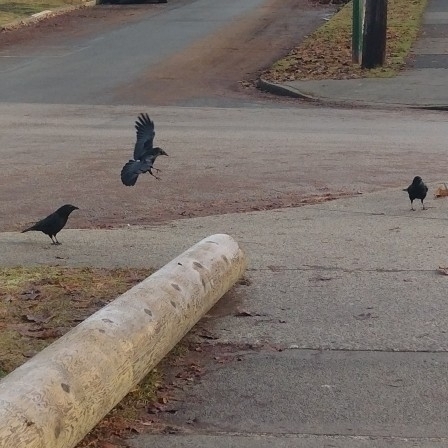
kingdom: Animalia
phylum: Chordata
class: Aves
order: Passeriformes
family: Corvidae
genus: Corvus
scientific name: Corvus brachyrhynchos
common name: American crow
